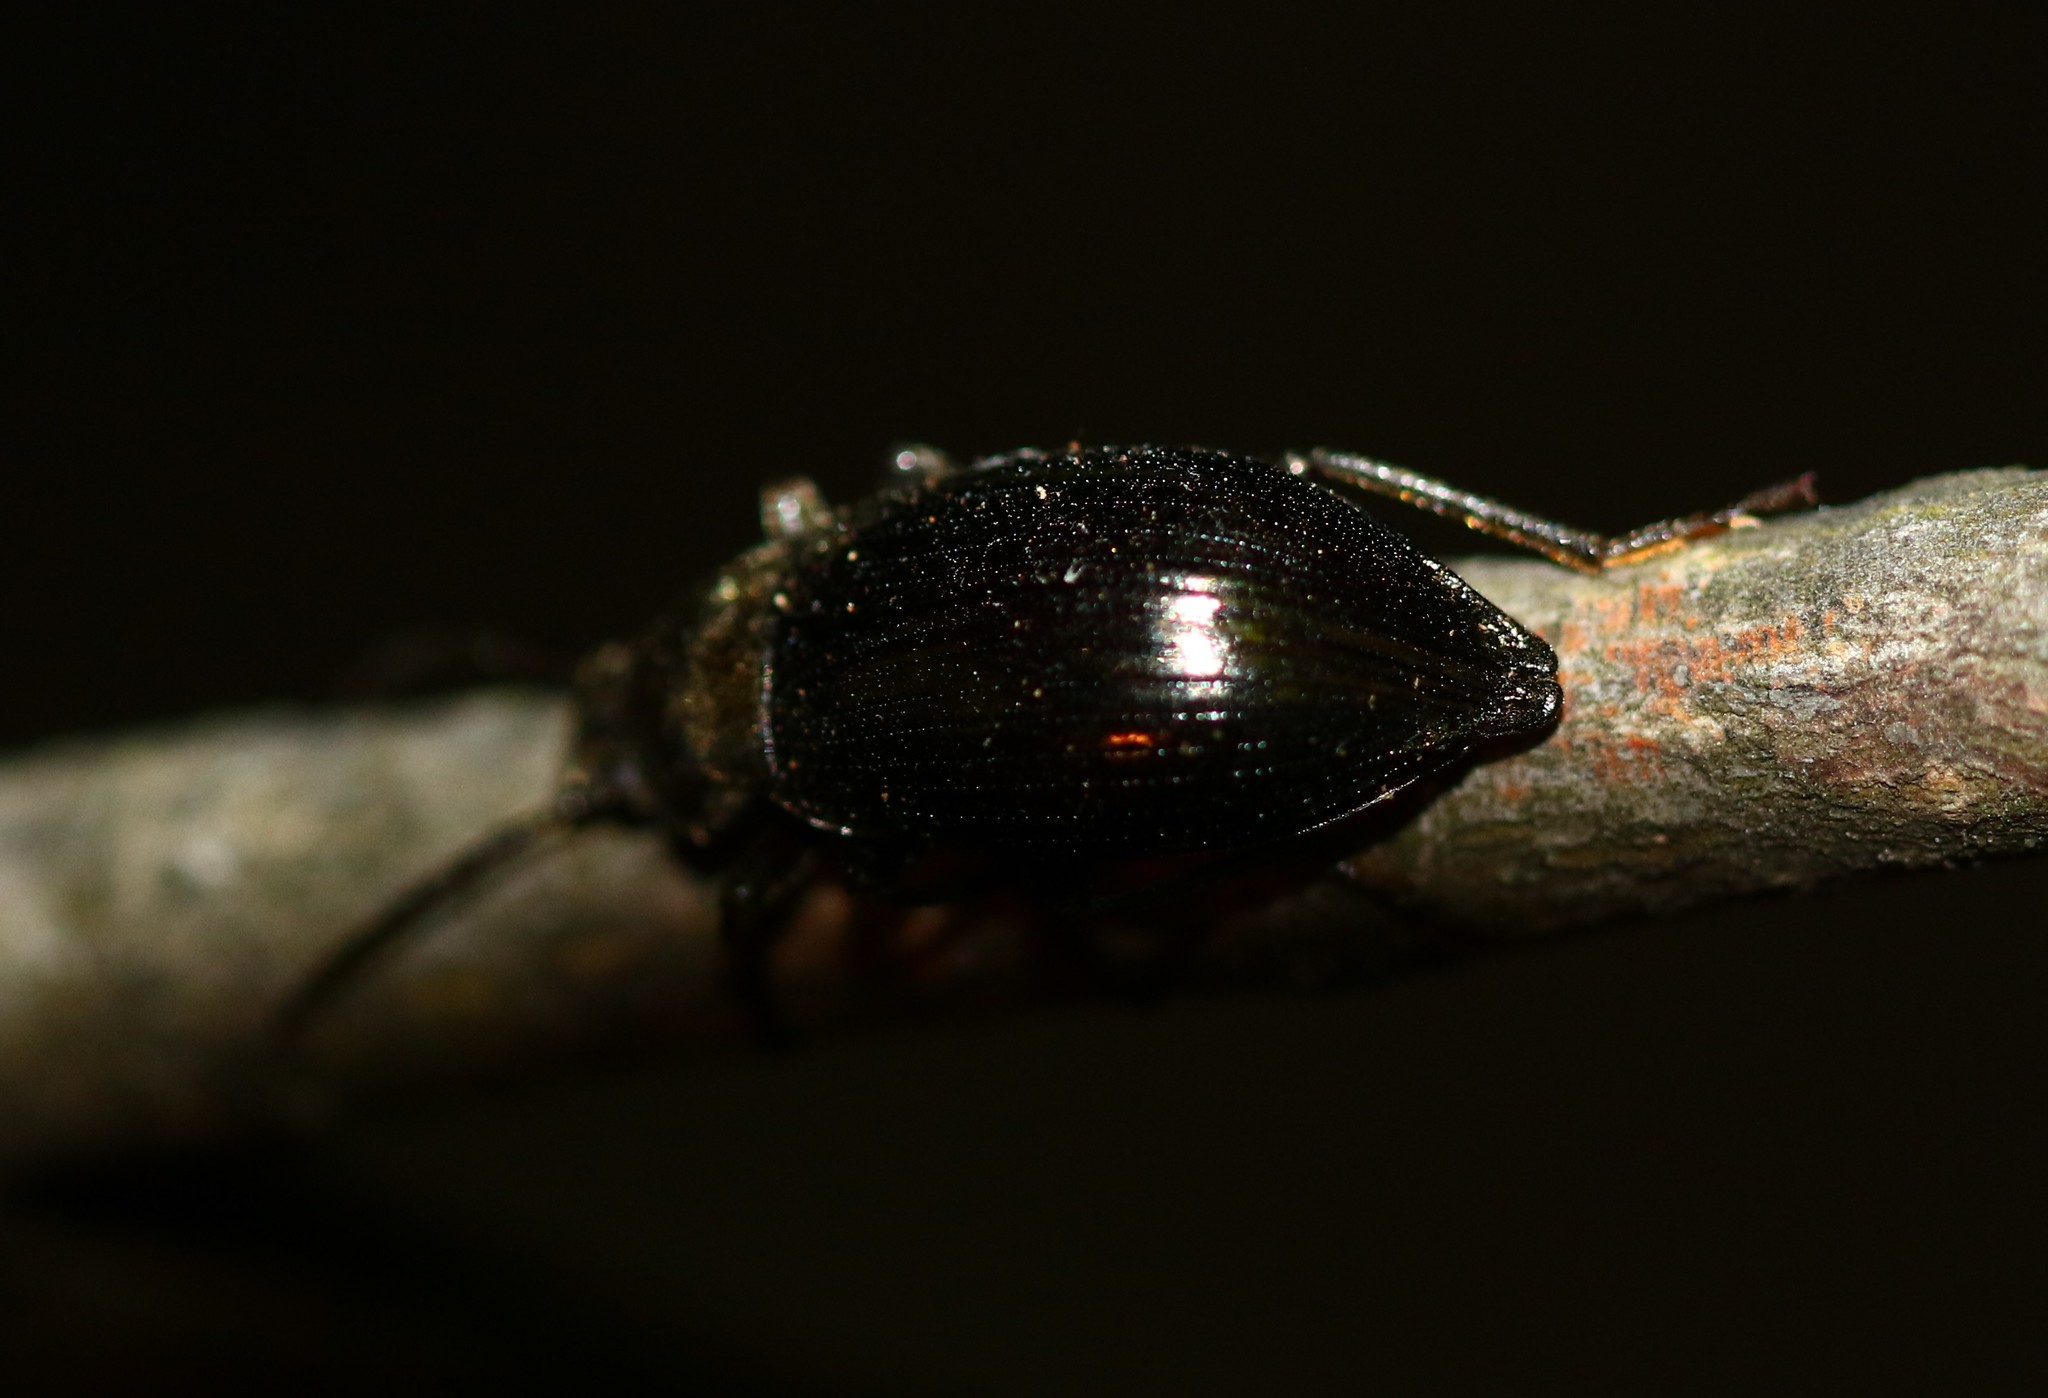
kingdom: Animalia
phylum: Arthropoda
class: Insecta
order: Coleoptera
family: Tenebrionidae
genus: Stenomax
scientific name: Stenomax aeneus
